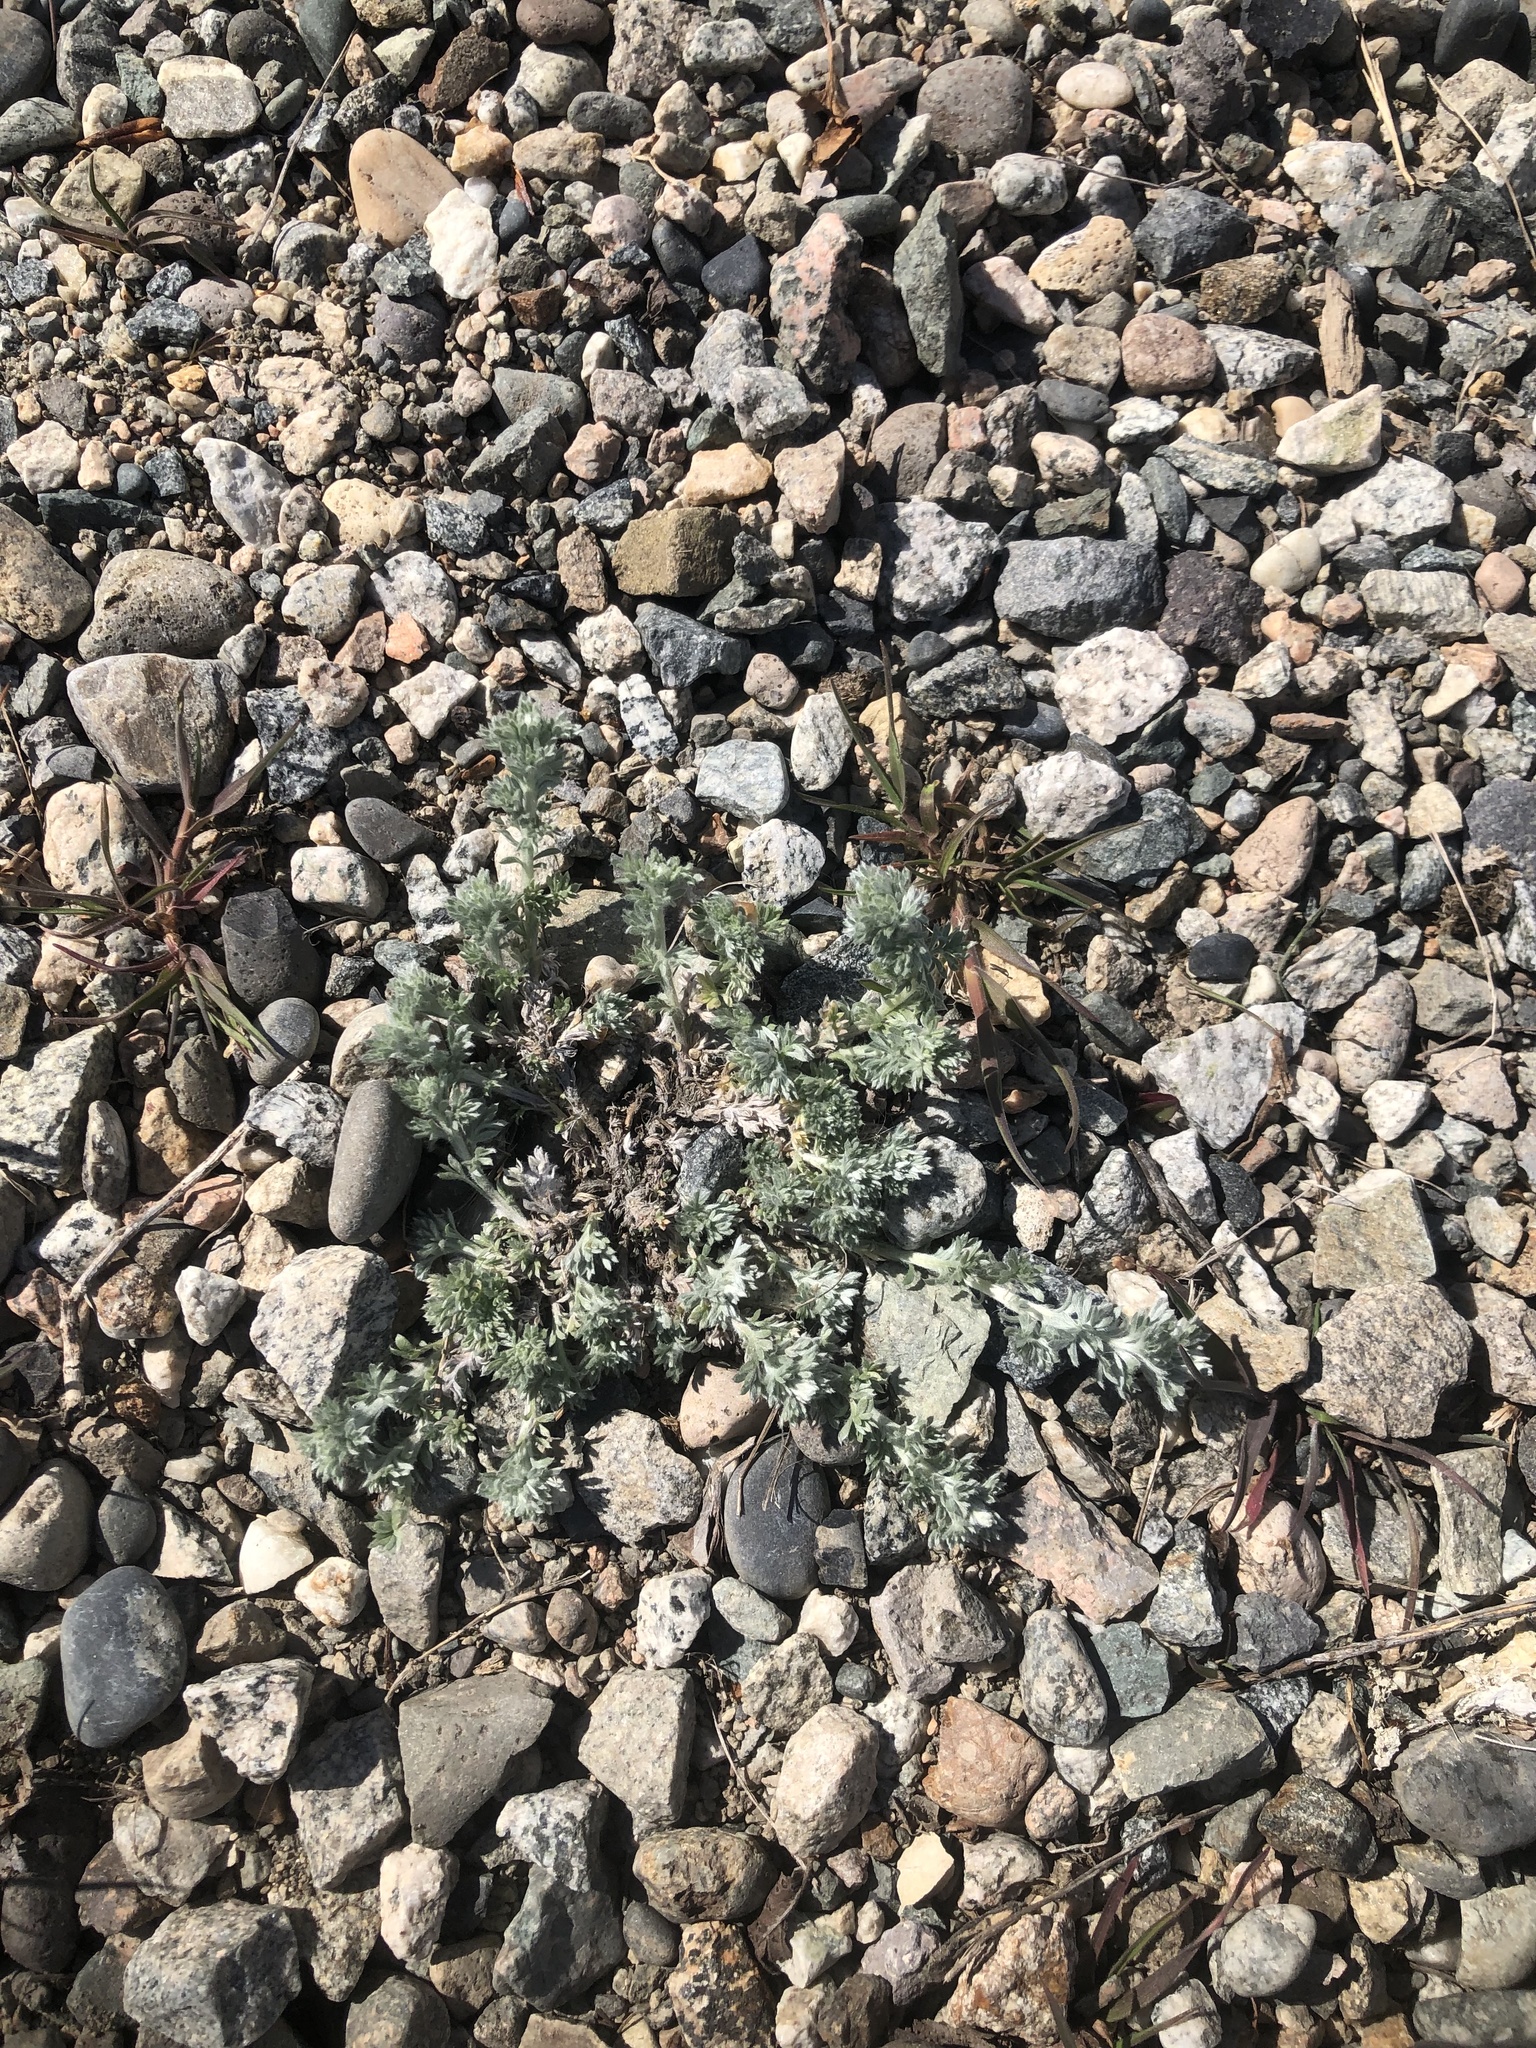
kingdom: Plantae
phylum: Tracheophyta
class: Magnoliopsida
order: Asterales
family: Asteraceae
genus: Artemisia
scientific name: Artemisia frigida
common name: Prairie sagewort
